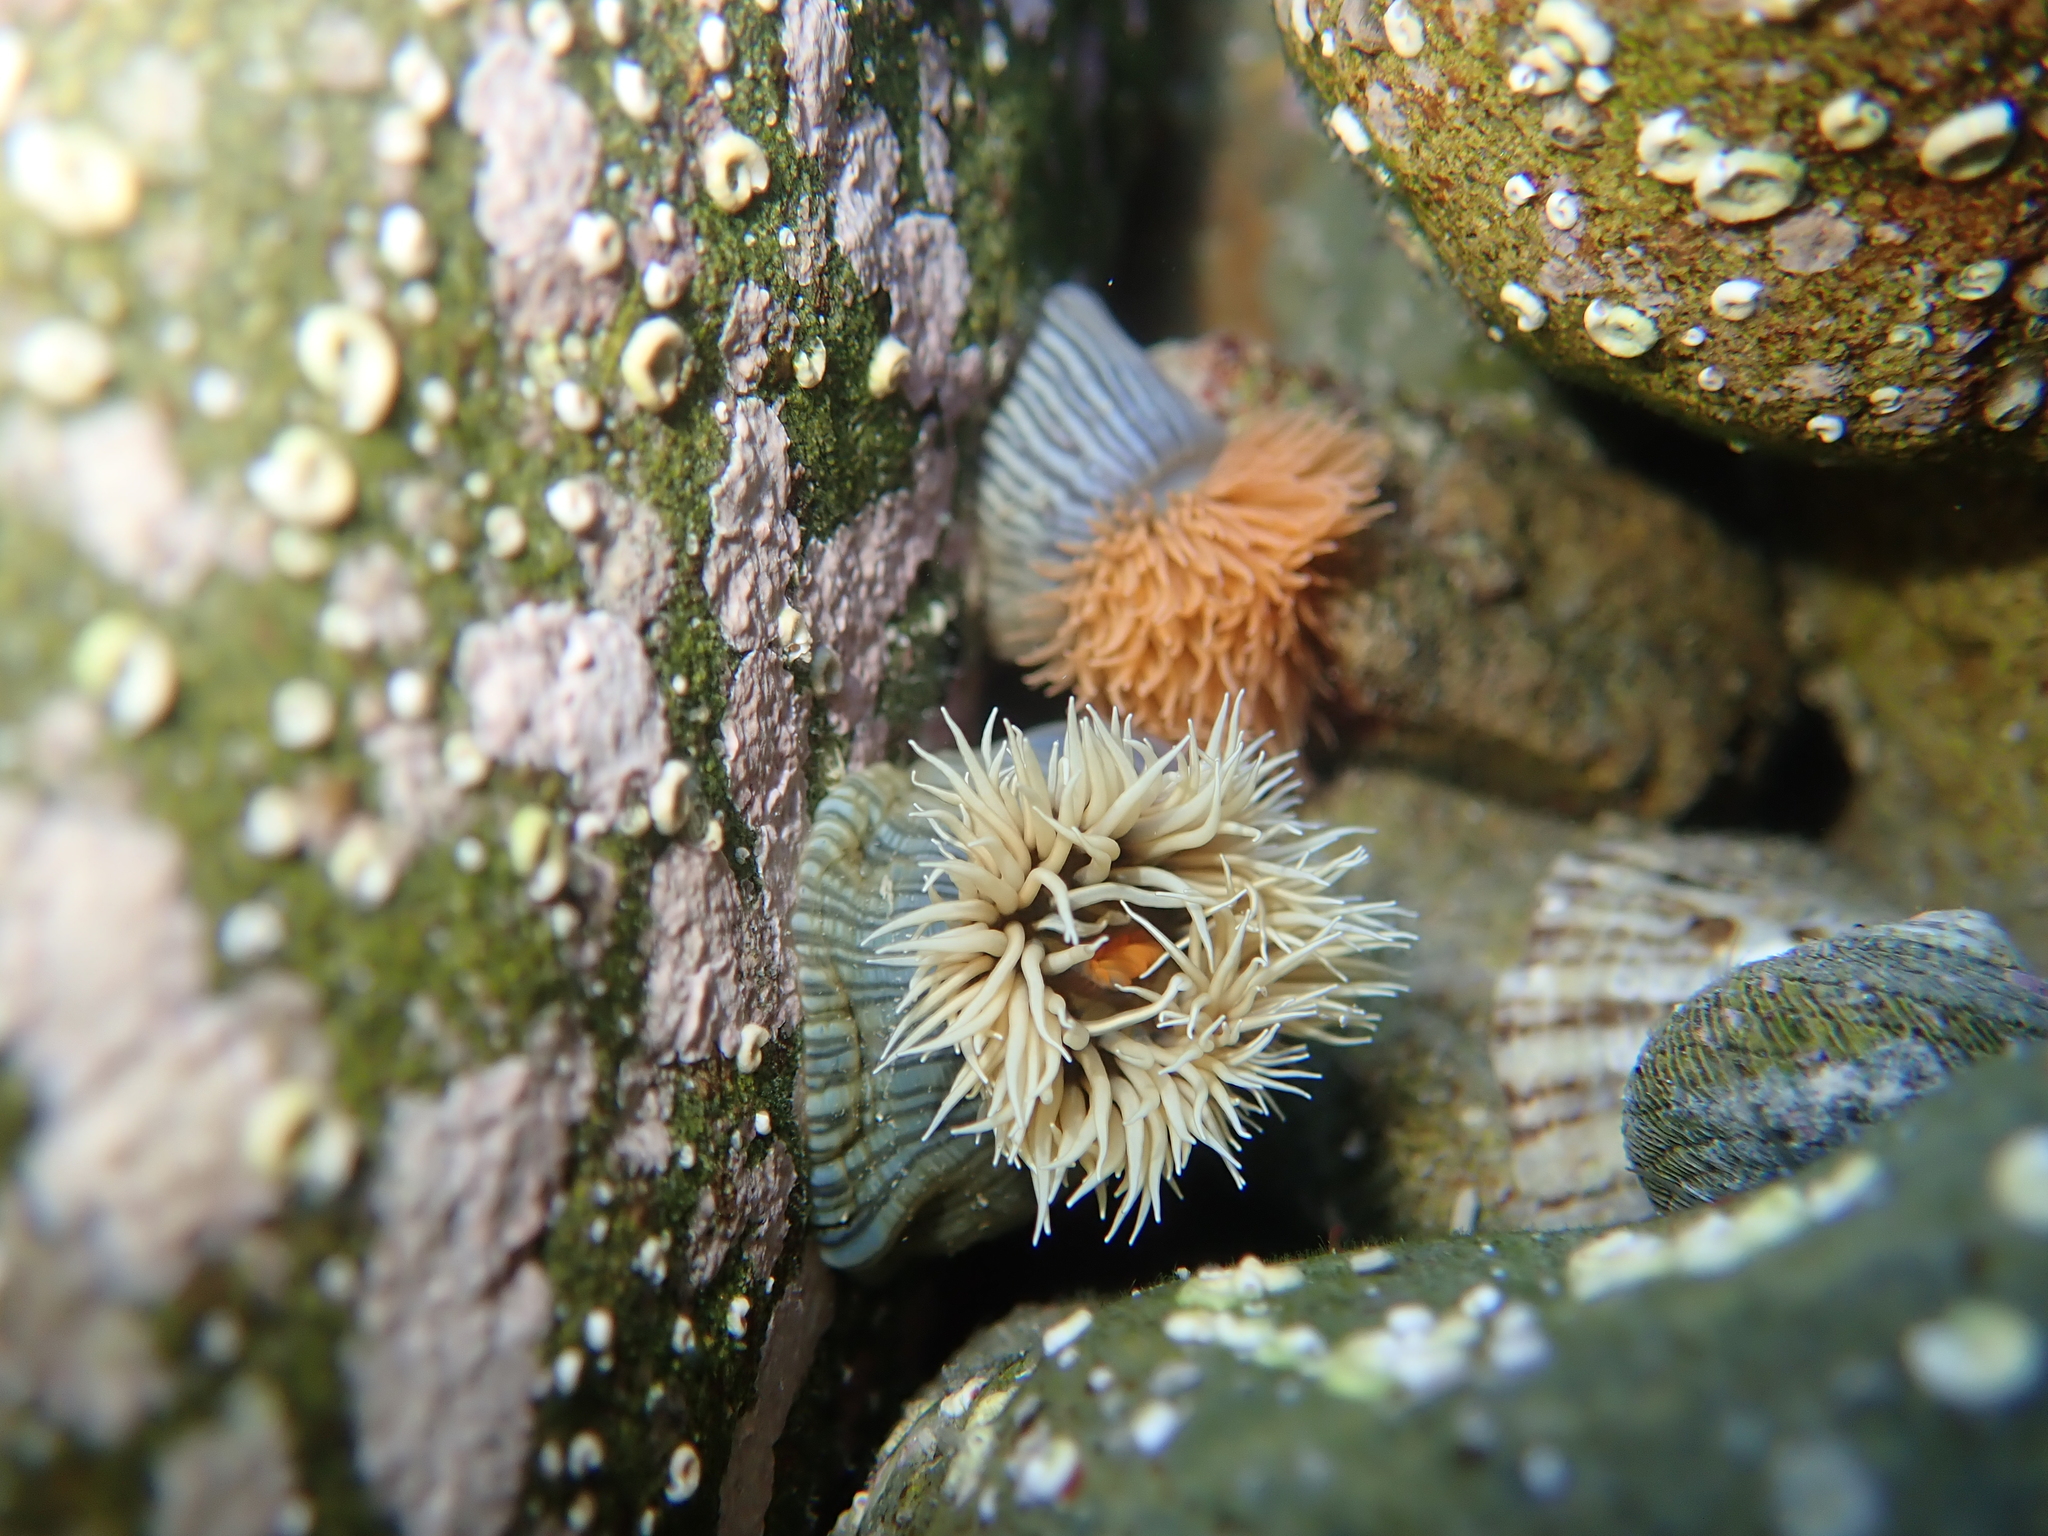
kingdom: Animalia
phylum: Cnidaria
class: Anthozoa
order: Actiniaria
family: Diadumenidae
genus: Diadumene
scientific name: Diadumene neozelanica
